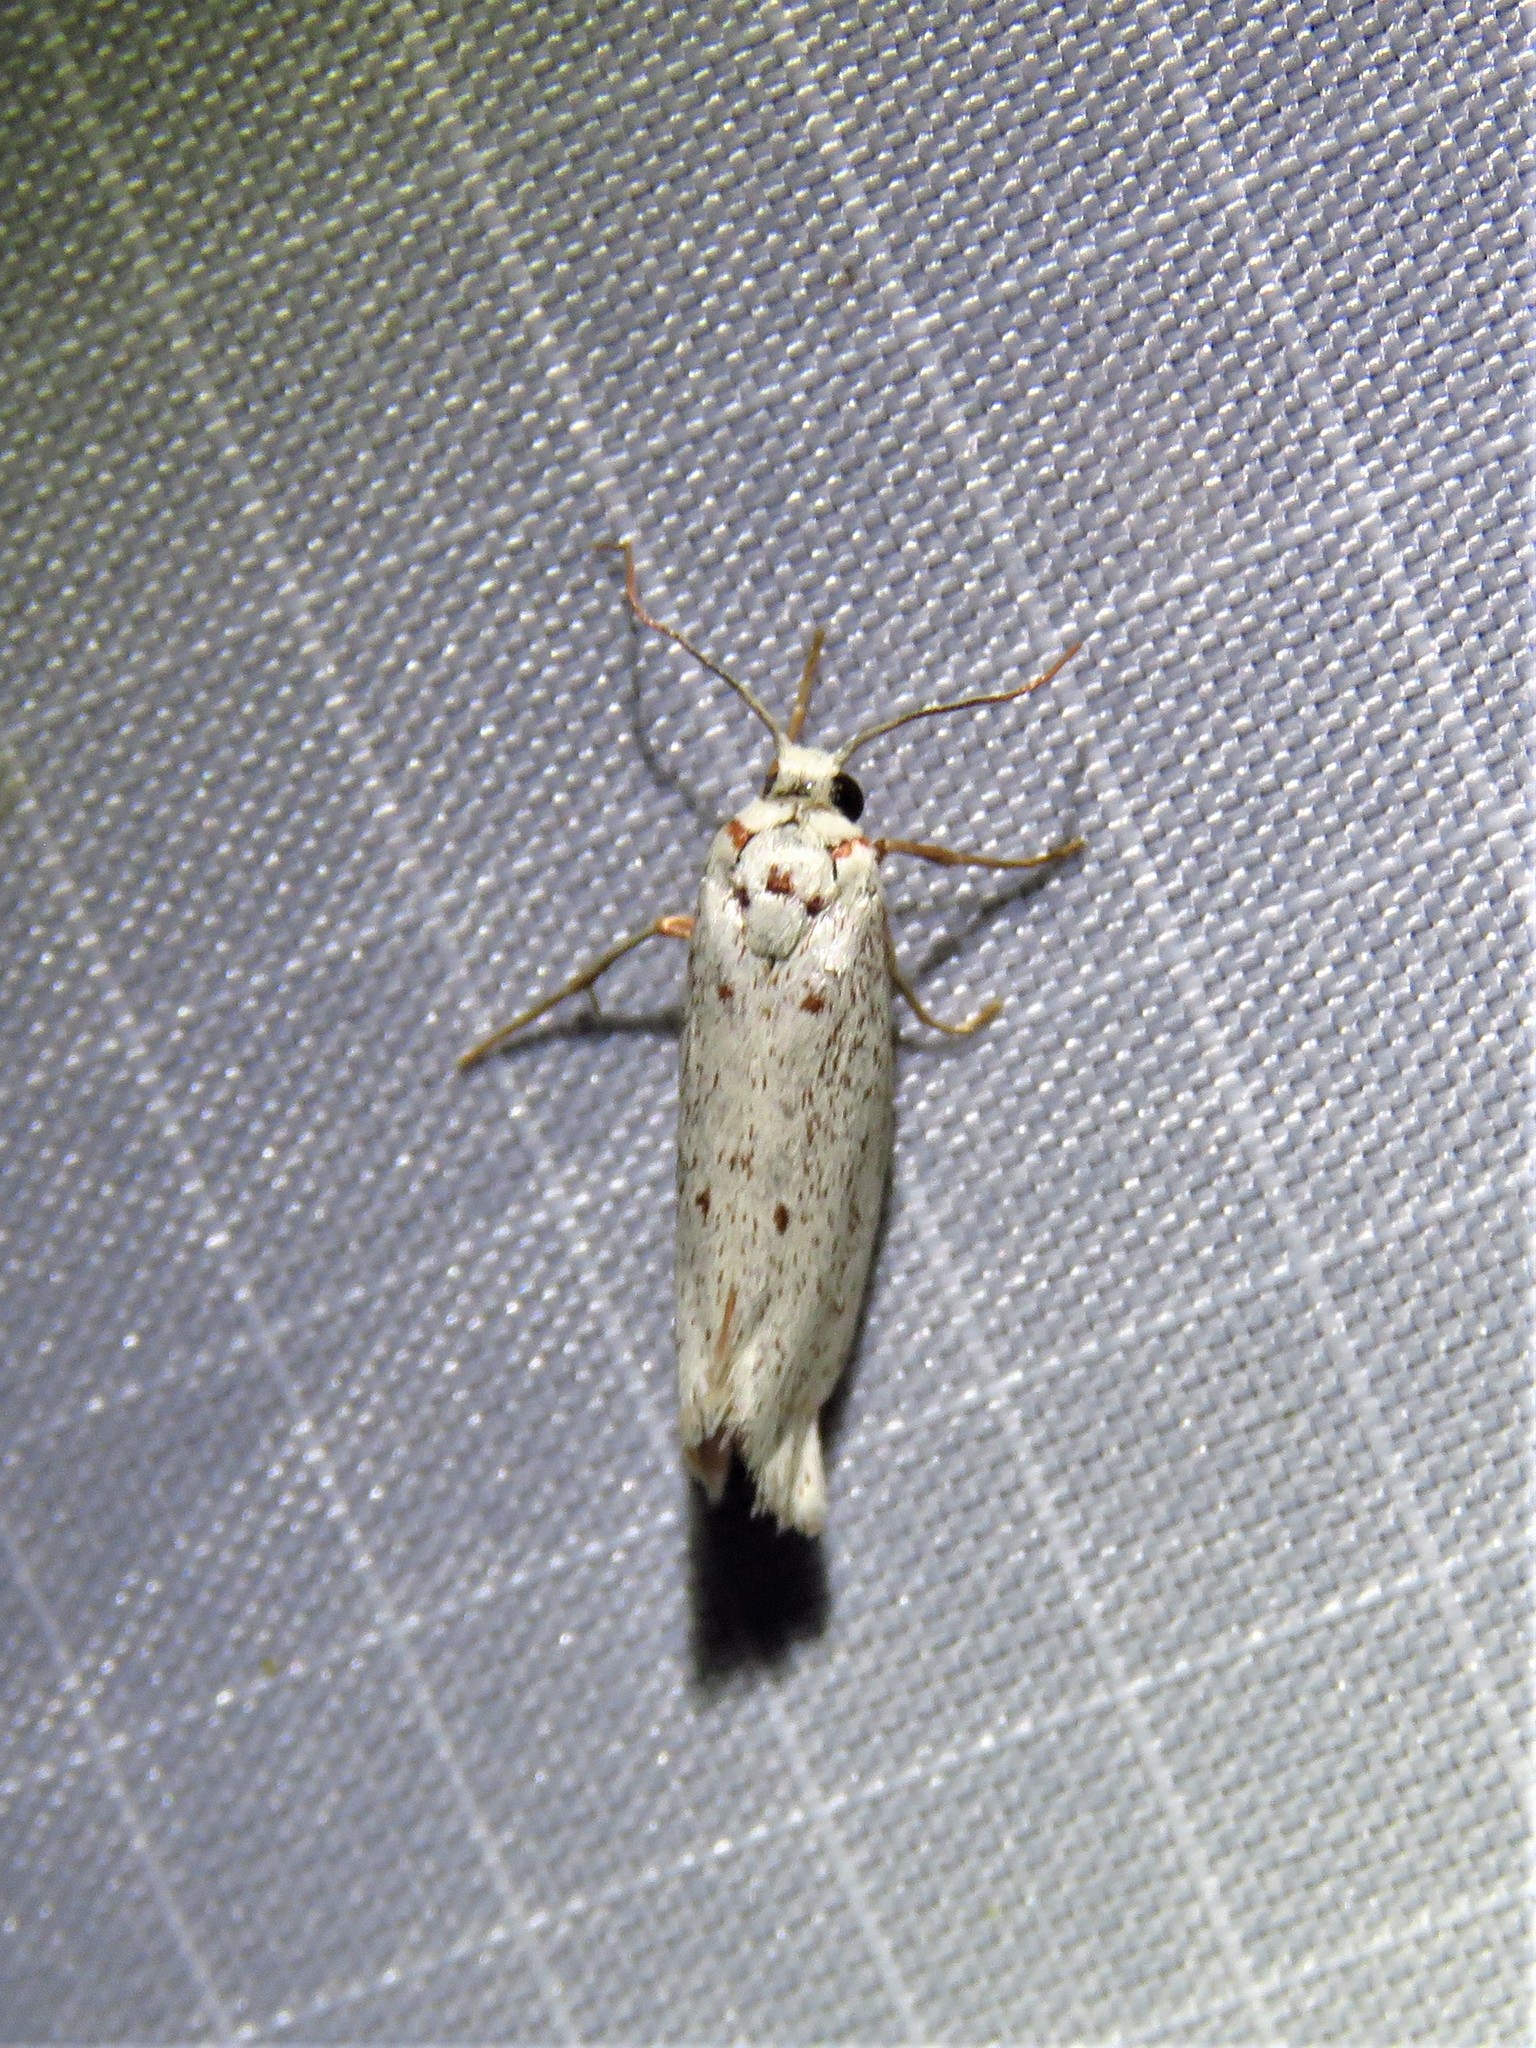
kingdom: Animalia
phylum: Arthropoda
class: Insecta
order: Lepidoptera
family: Lacturidae
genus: Lactura
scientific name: Lactura
